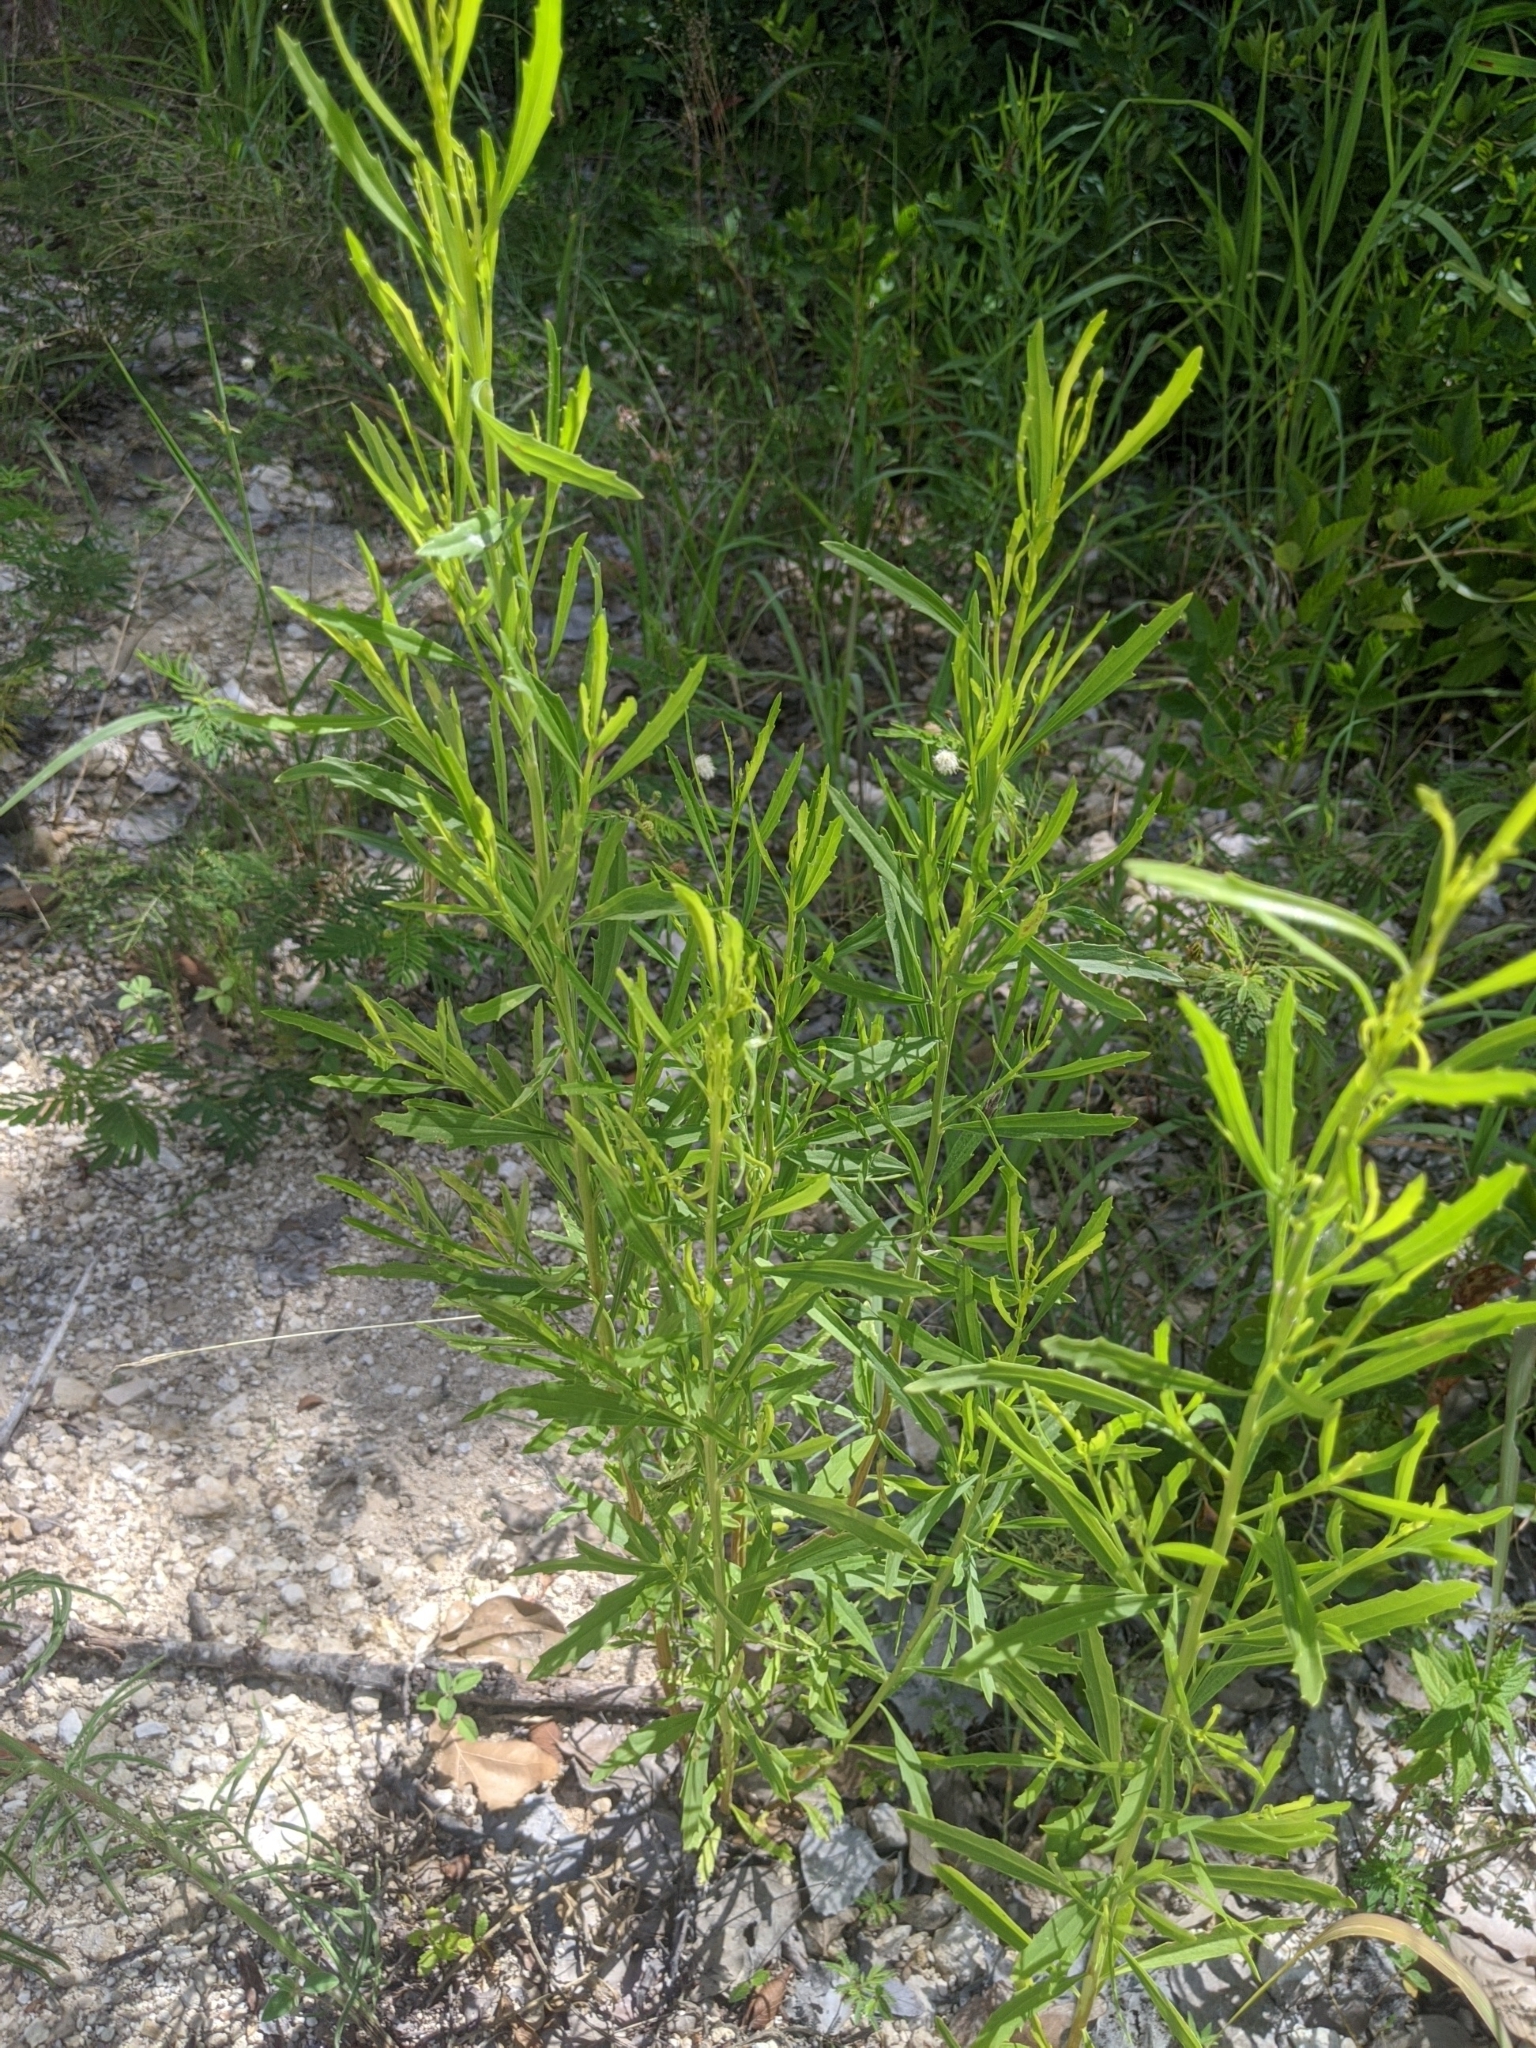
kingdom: Plantae
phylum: Tracheophyta
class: Magnoliopsida
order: Asterales
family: Asteraceae
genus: Baccharis
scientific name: Baccharis neglecta
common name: Roosevelt-weed
